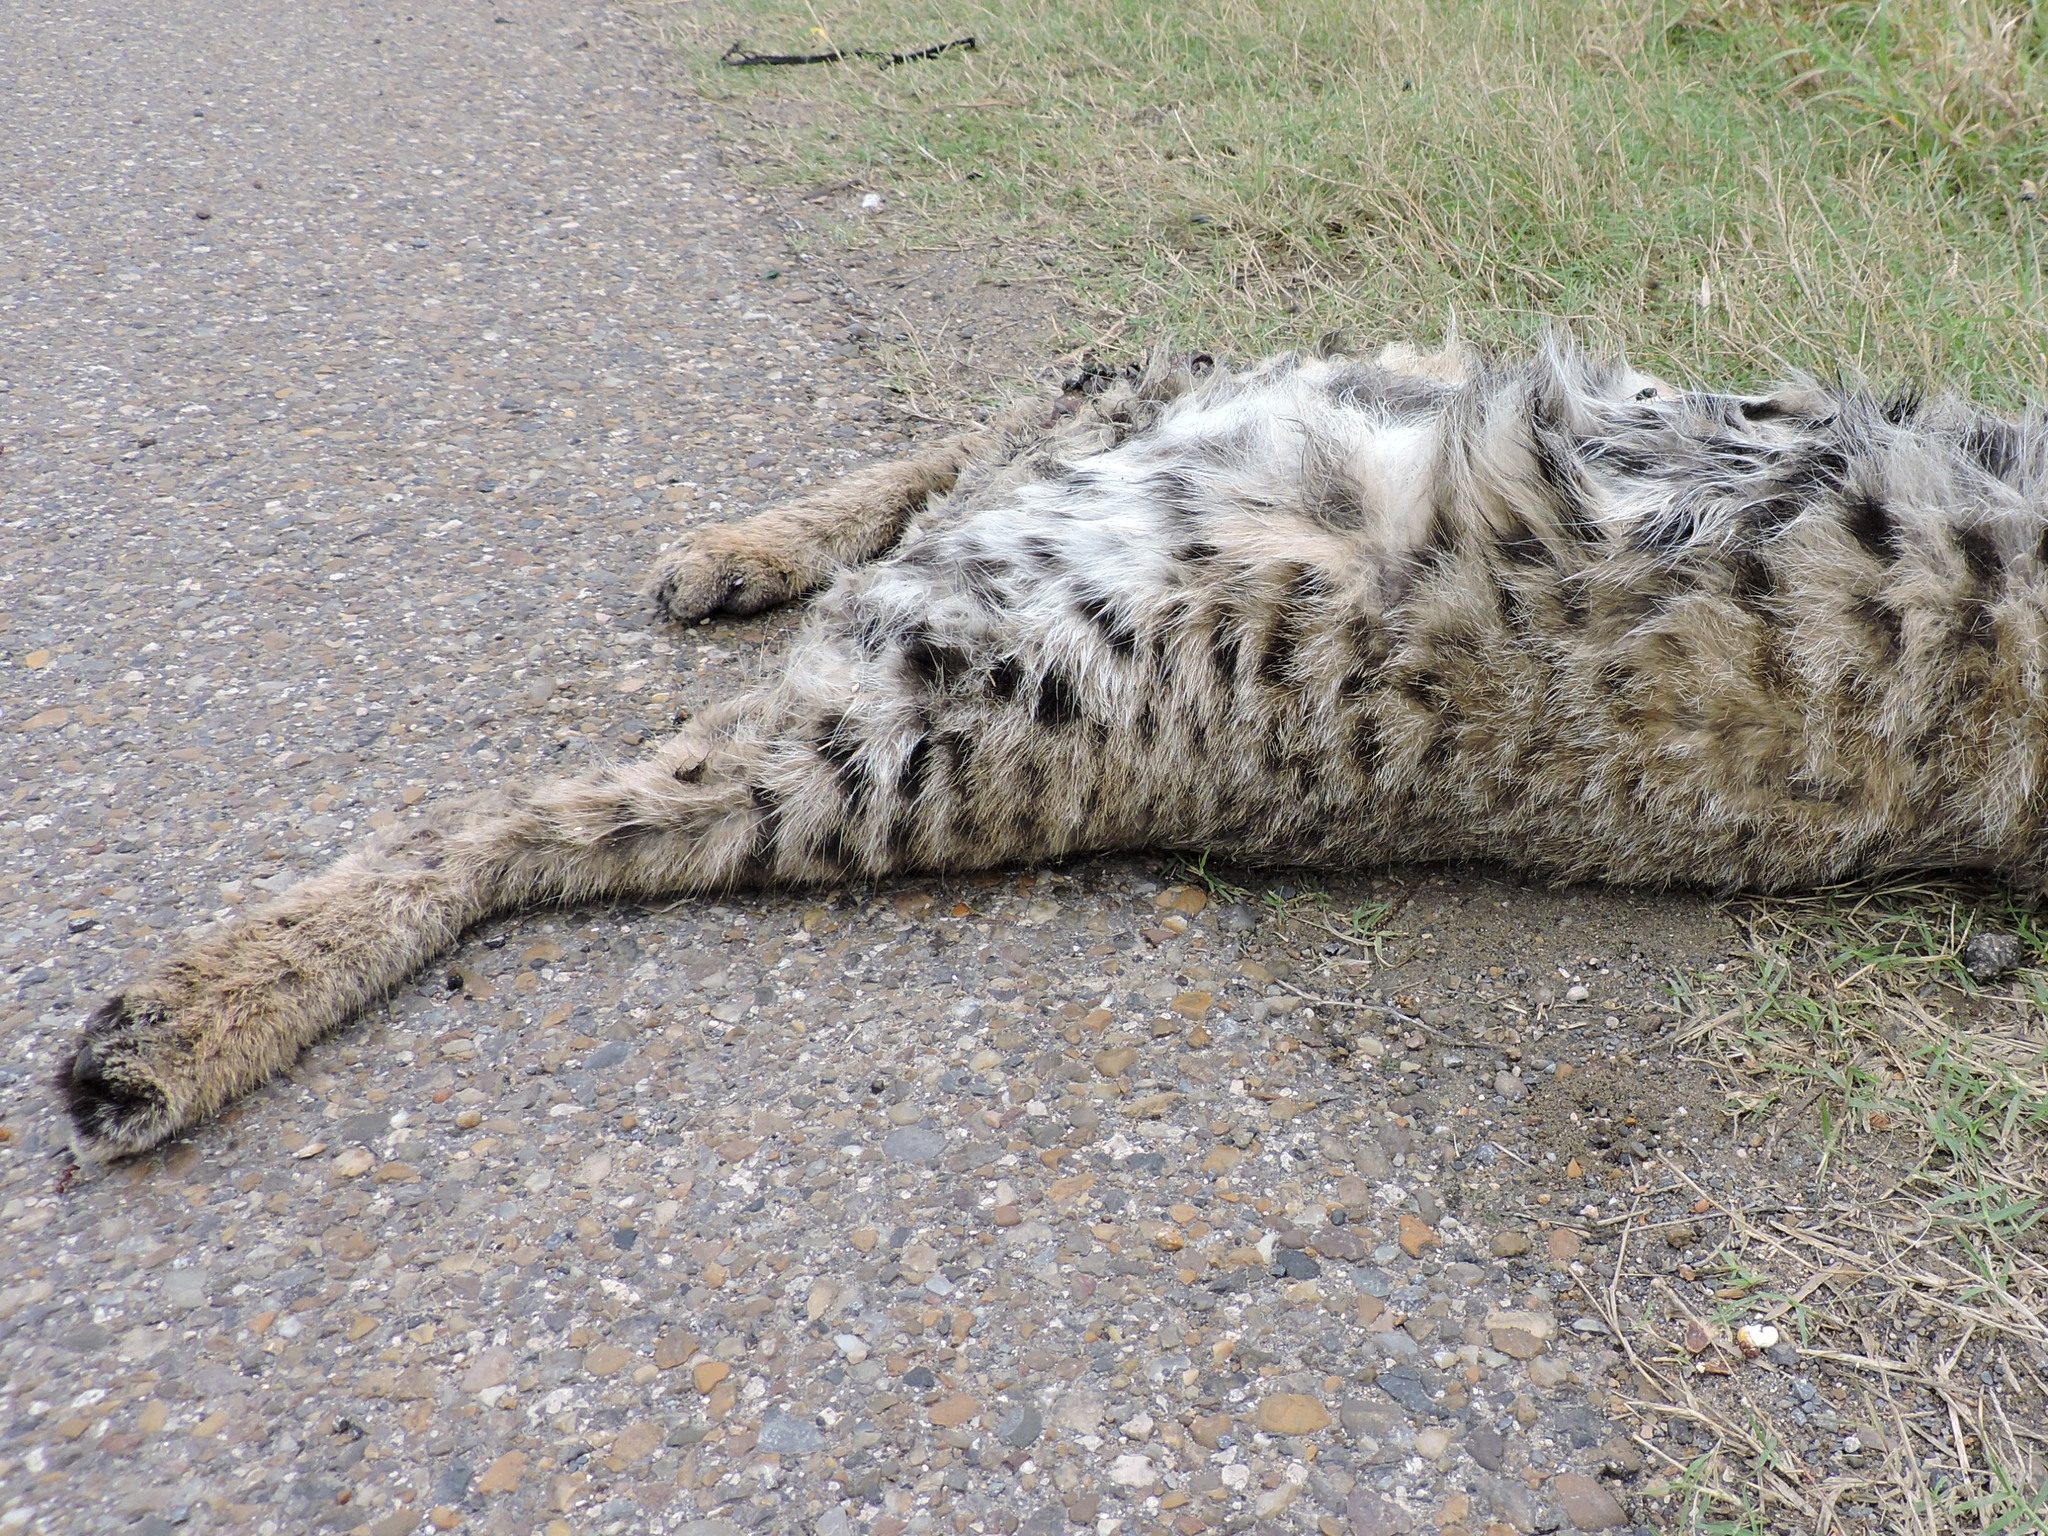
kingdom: Animalia
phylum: Chordata
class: Mammalia
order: Carnivora
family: Felidae
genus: Lynx
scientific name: Lynx rufus
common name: Bobcat
